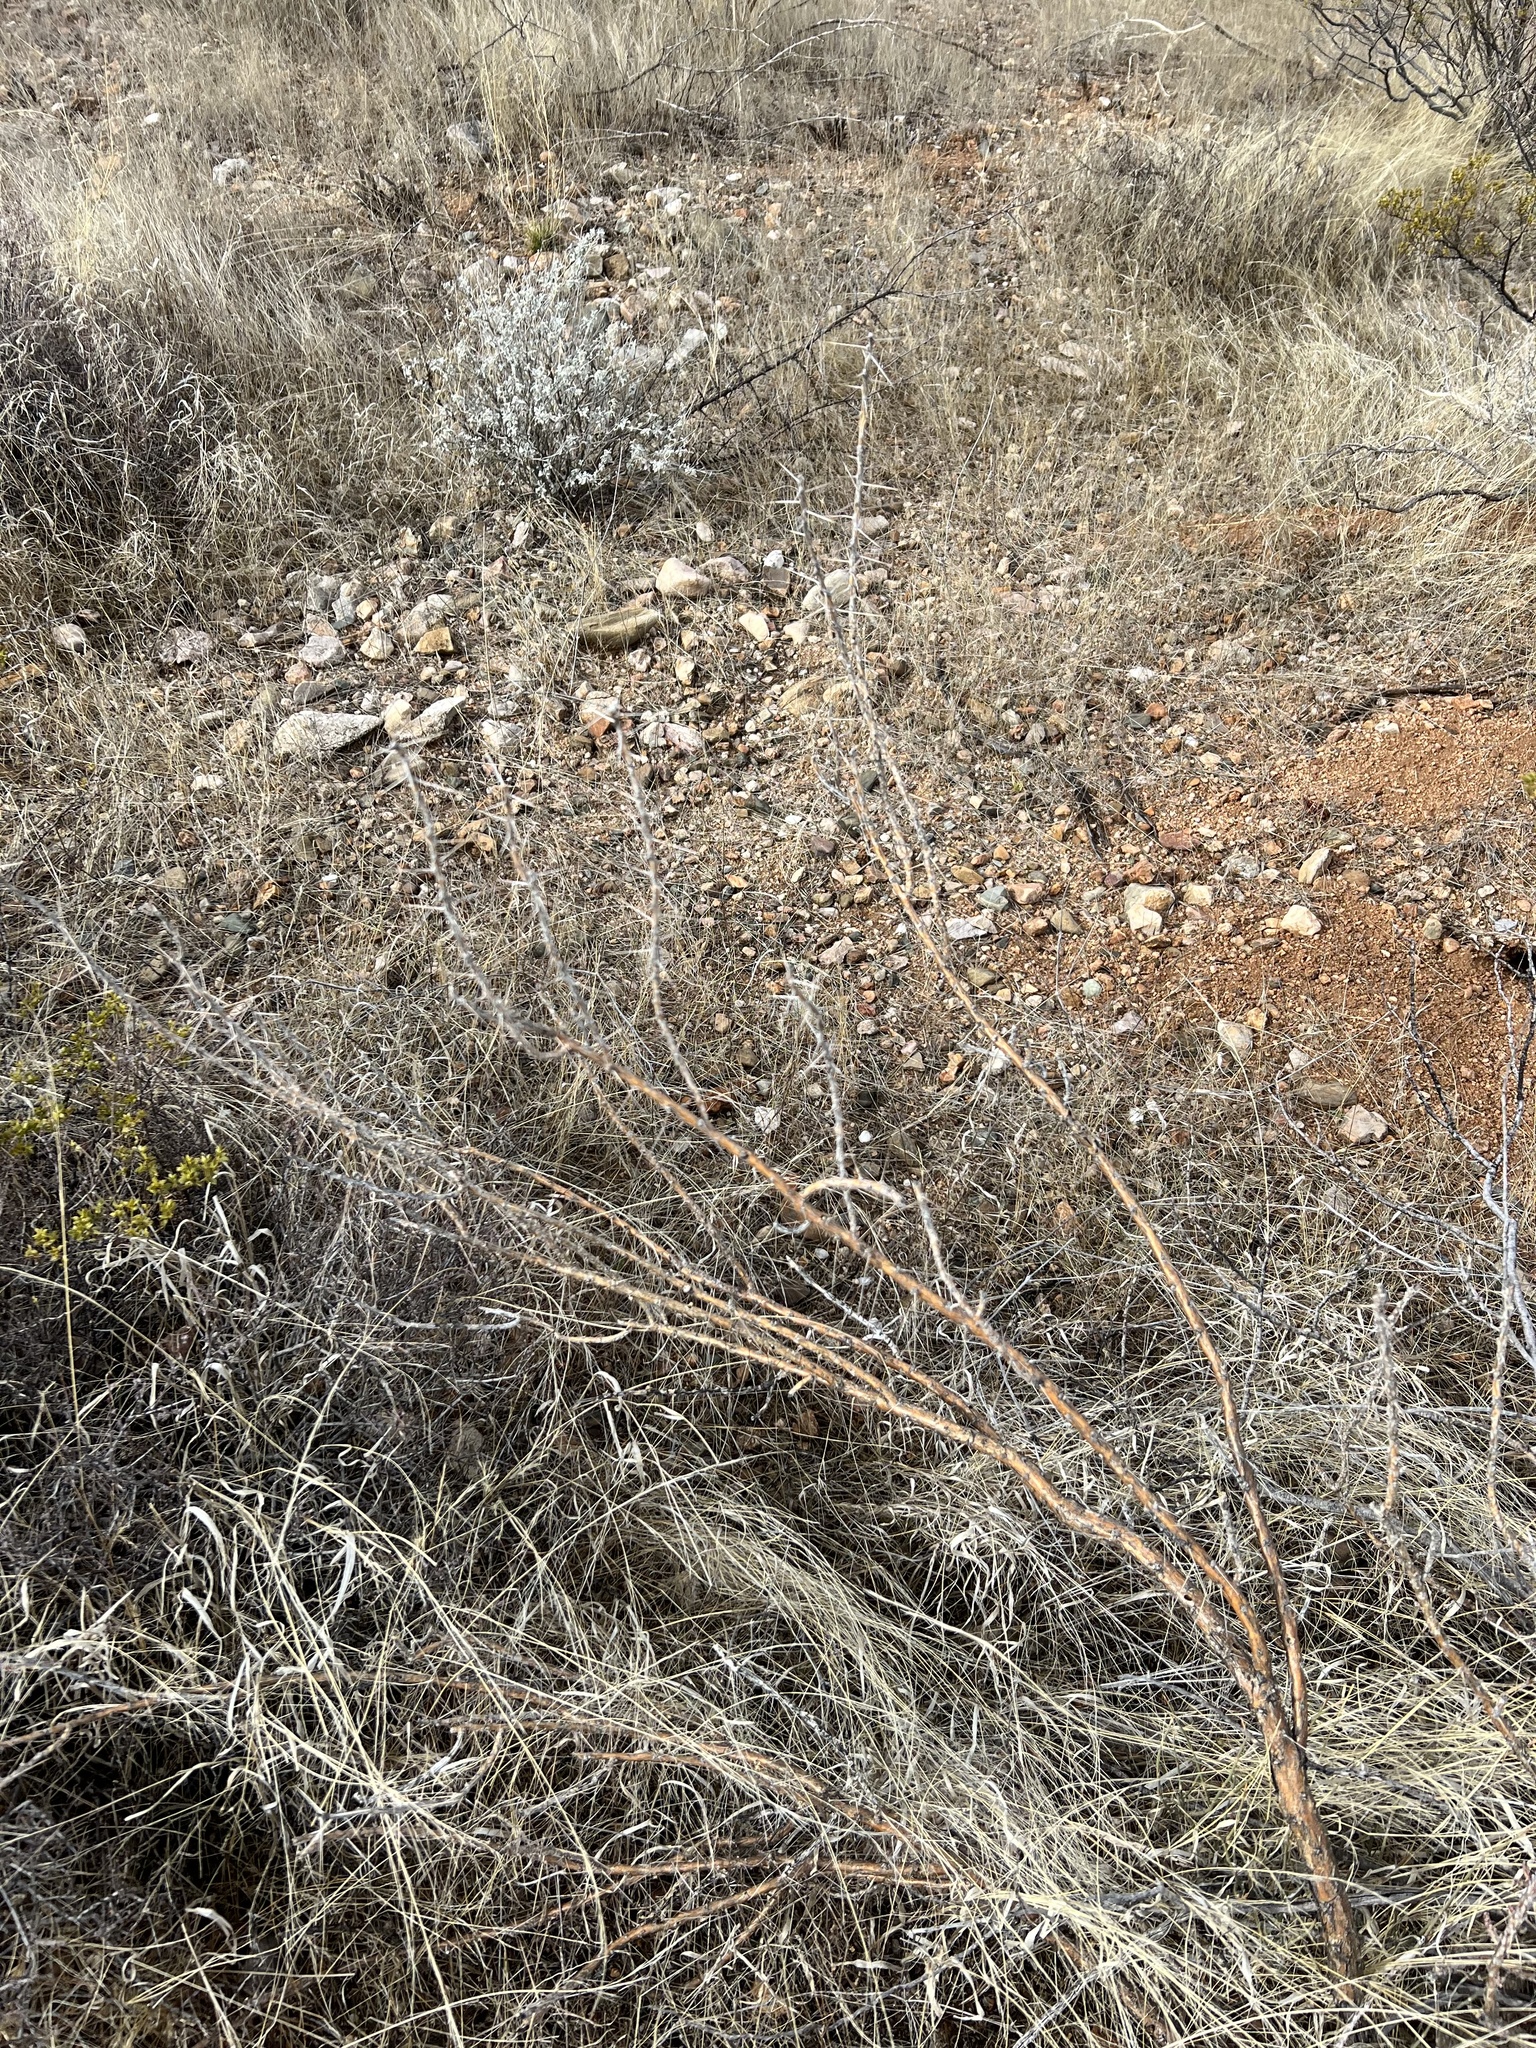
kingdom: Plantae
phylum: Tracheophyta
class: Magnoliopsida
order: Caryophyllales
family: Cactaceae
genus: Cylindropuntia
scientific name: Cylindropuntia leptocaulis
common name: Christmas cactus
